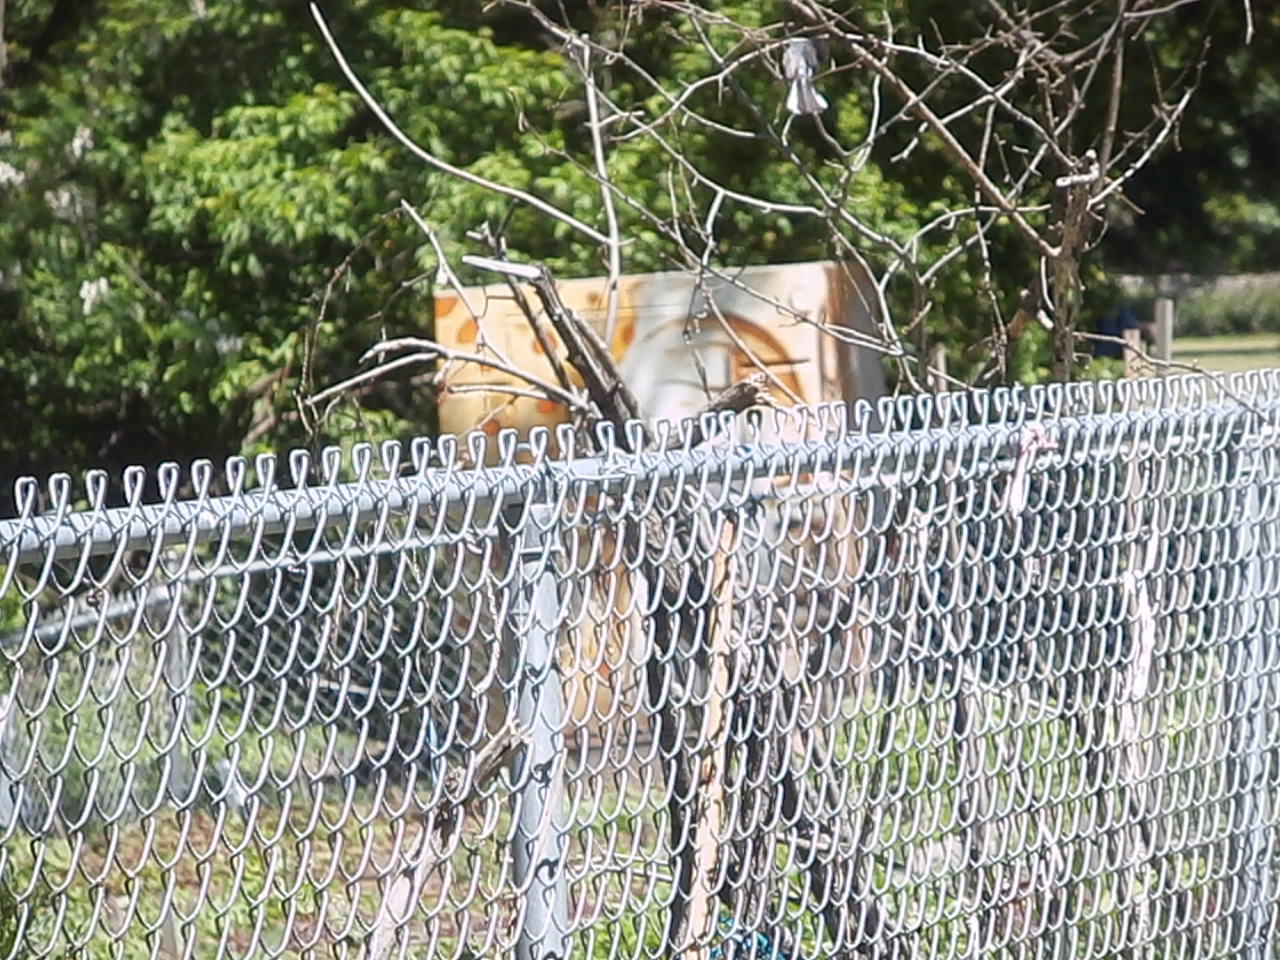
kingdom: Animalia
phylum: Chordata
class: Aves
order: Passeriformes
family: Polioptilidae
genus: Polioptila
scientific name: Polioptila caerulea
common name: Blue-gray gnatcatcher
